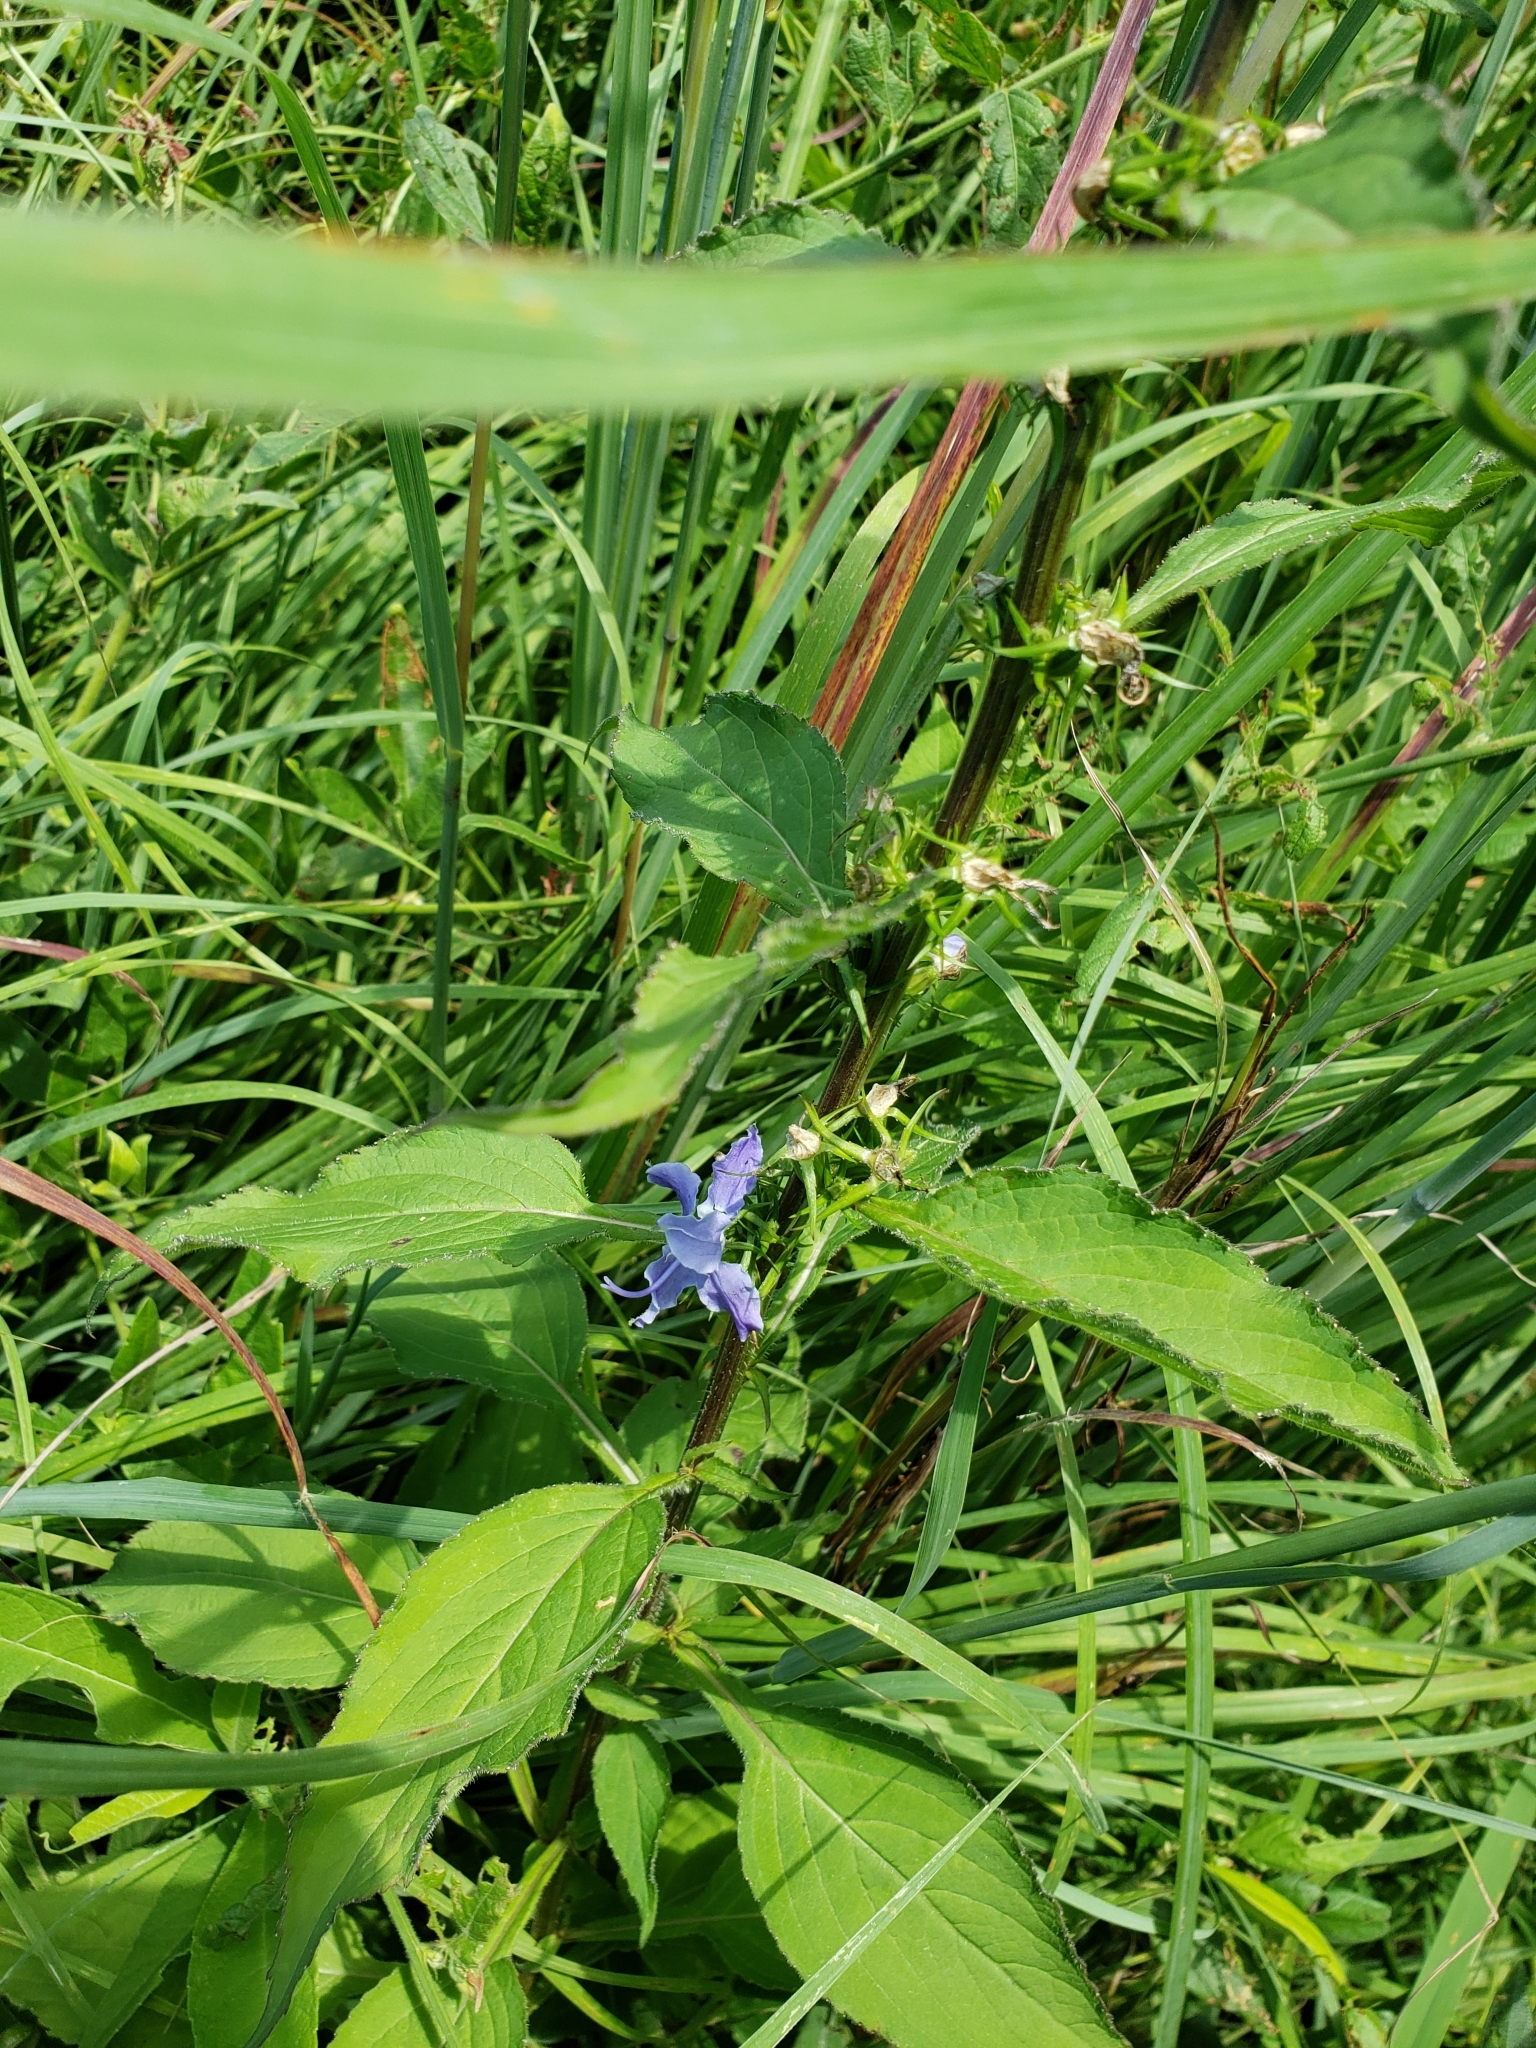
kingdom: Plantae
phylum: Tracheophyta
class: Magnoliopsida
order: Asterales
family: Campanulaceae
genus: Campanulastrum
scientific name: Campanulastrum americanum
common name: American bellflower
